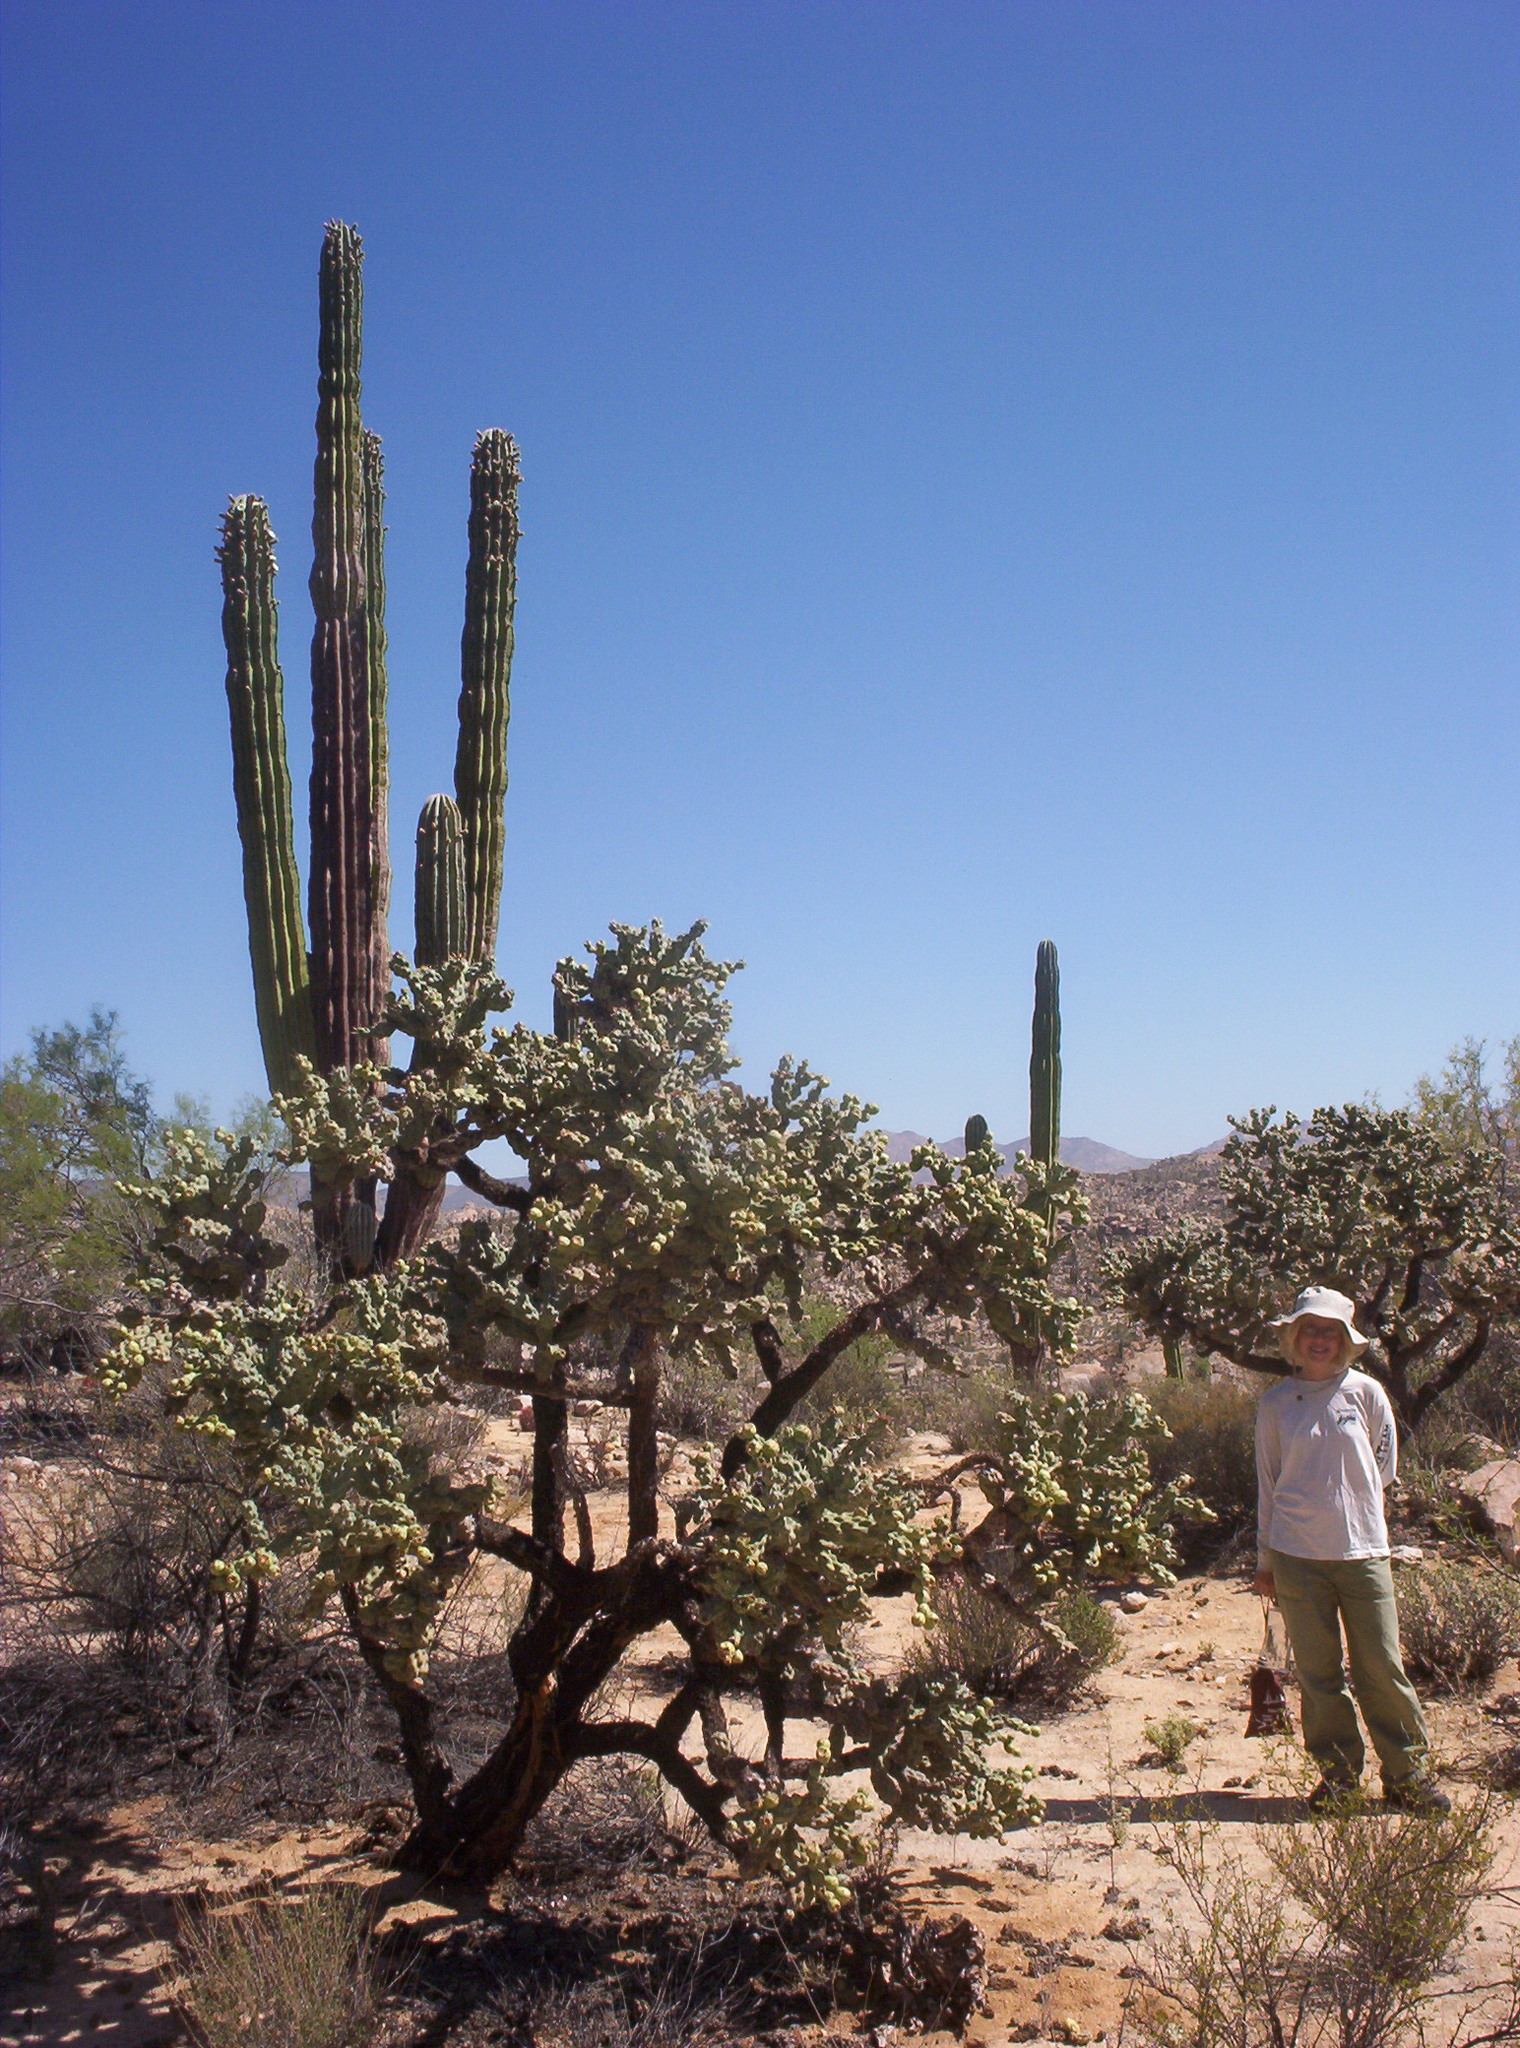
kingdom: Plantae
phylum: Tracheophyta
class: Magnoliopsida
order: Caryophyllales
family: Cactaceae
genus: Cylindropuntia
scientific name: Cylindropuntia cholla
